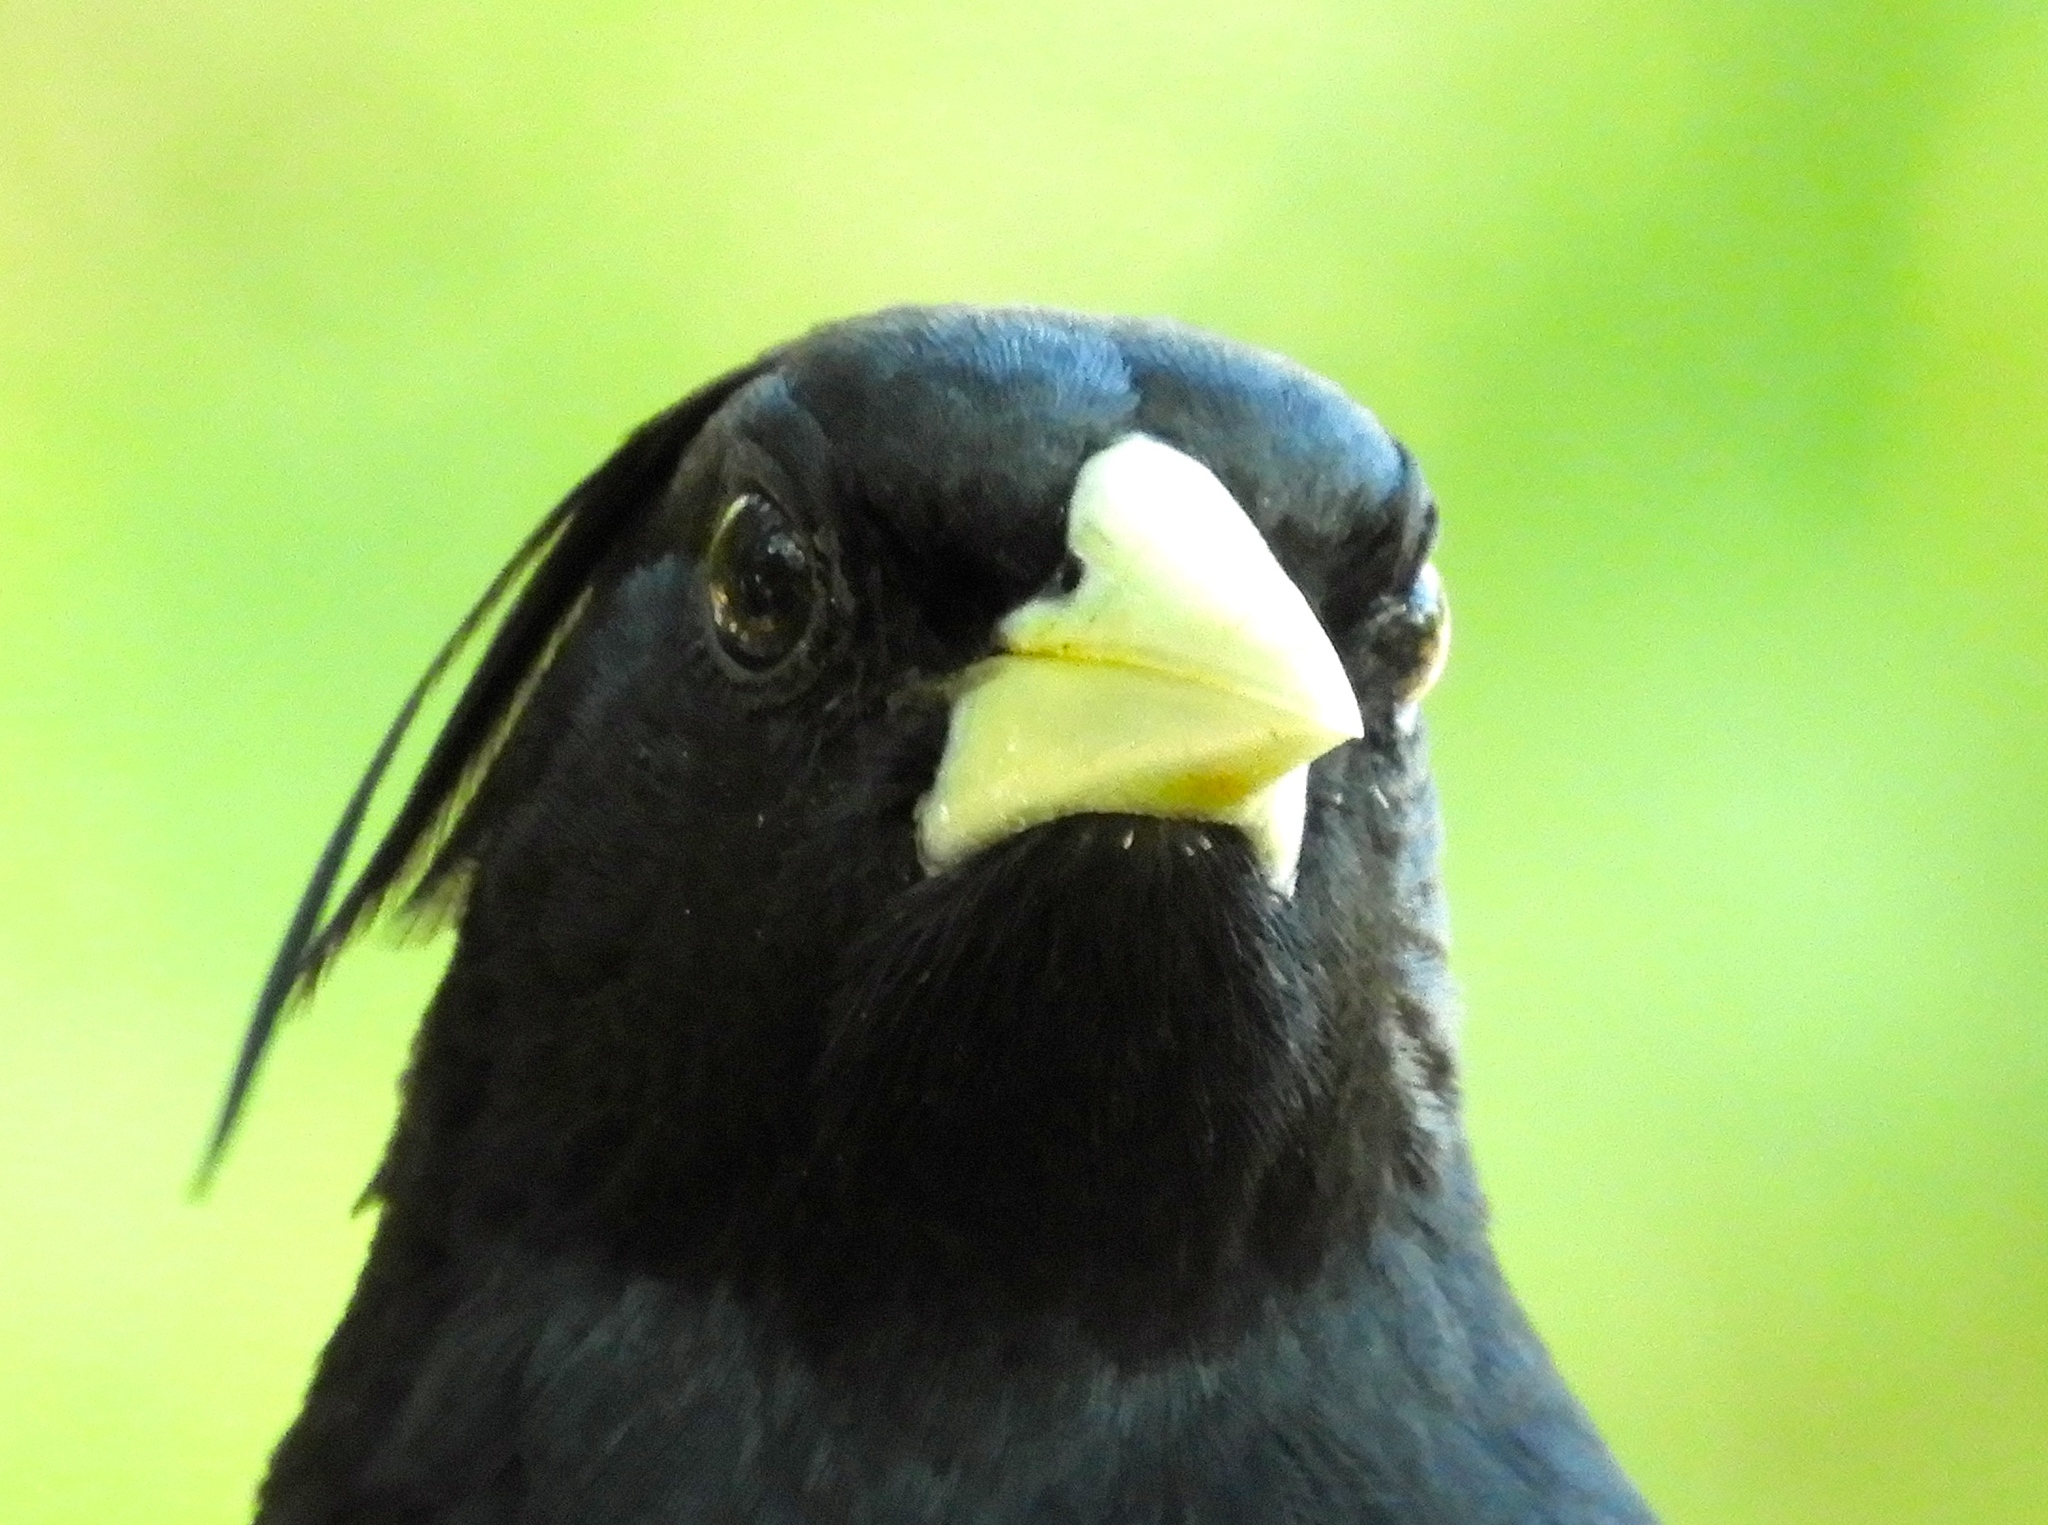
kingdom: Animalia
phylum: Chordata
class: Aves
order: Passeriformes
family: Icteridae
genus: Cacicus
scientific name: Cacicus melanicterus
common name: Yellow-winged cacique
